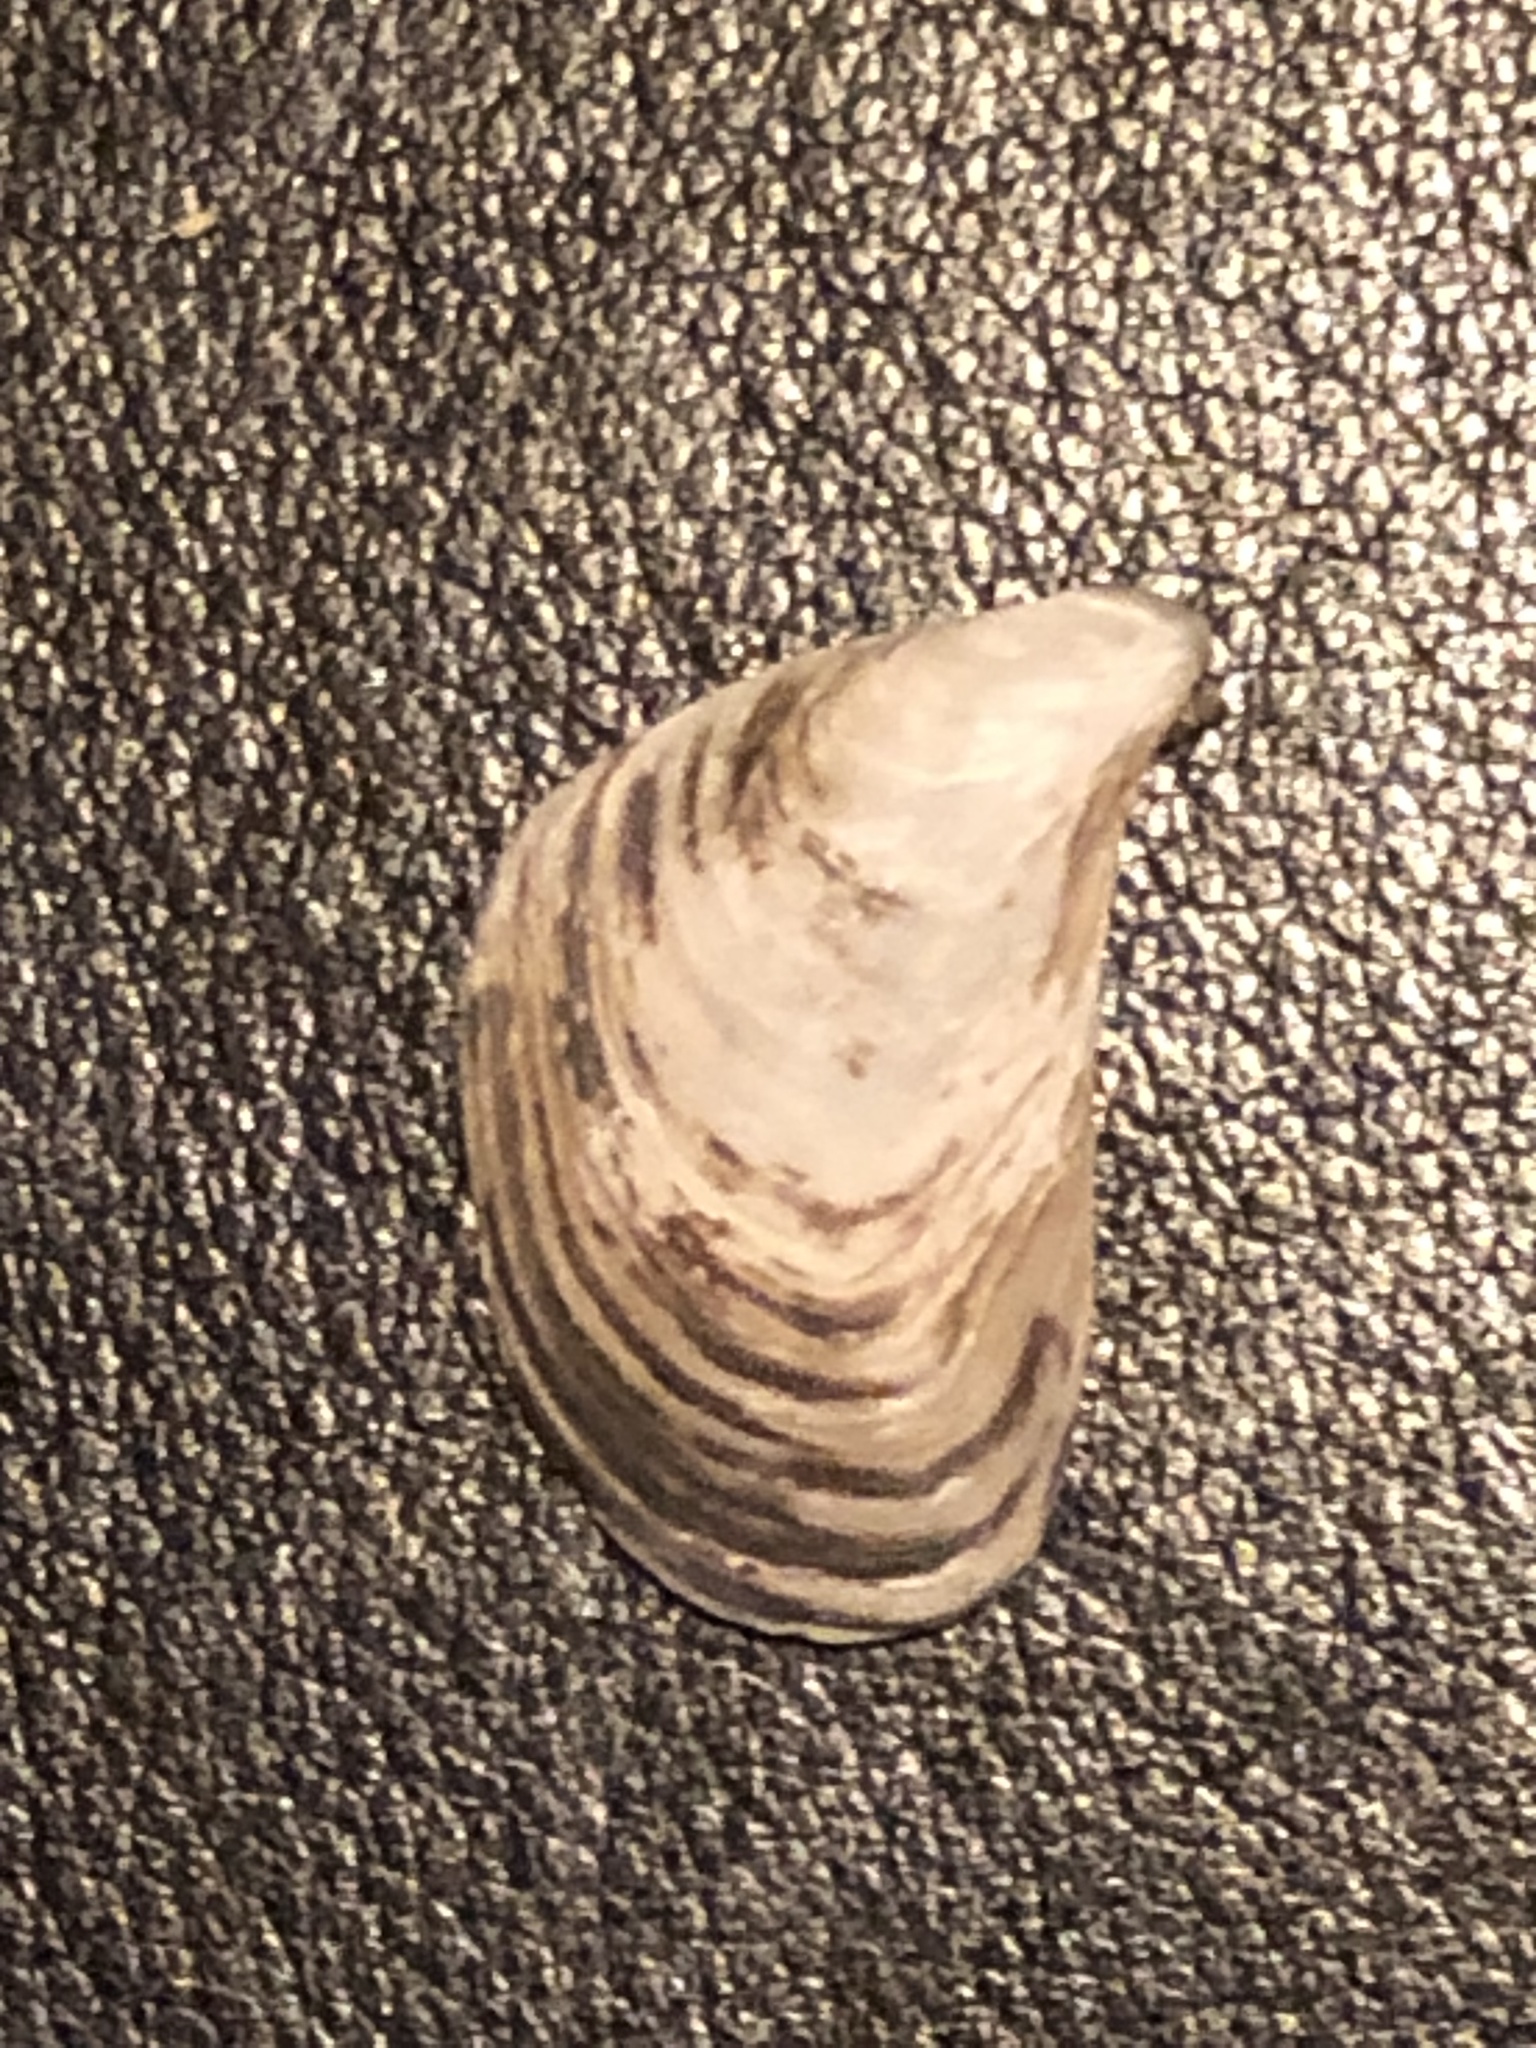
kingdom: Animalia
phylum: Mollusca
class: Bivalvia
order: Myida
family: Dreissenidae
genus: Dreissena
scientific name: Dreissena bugensis
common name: Quagga mussel
